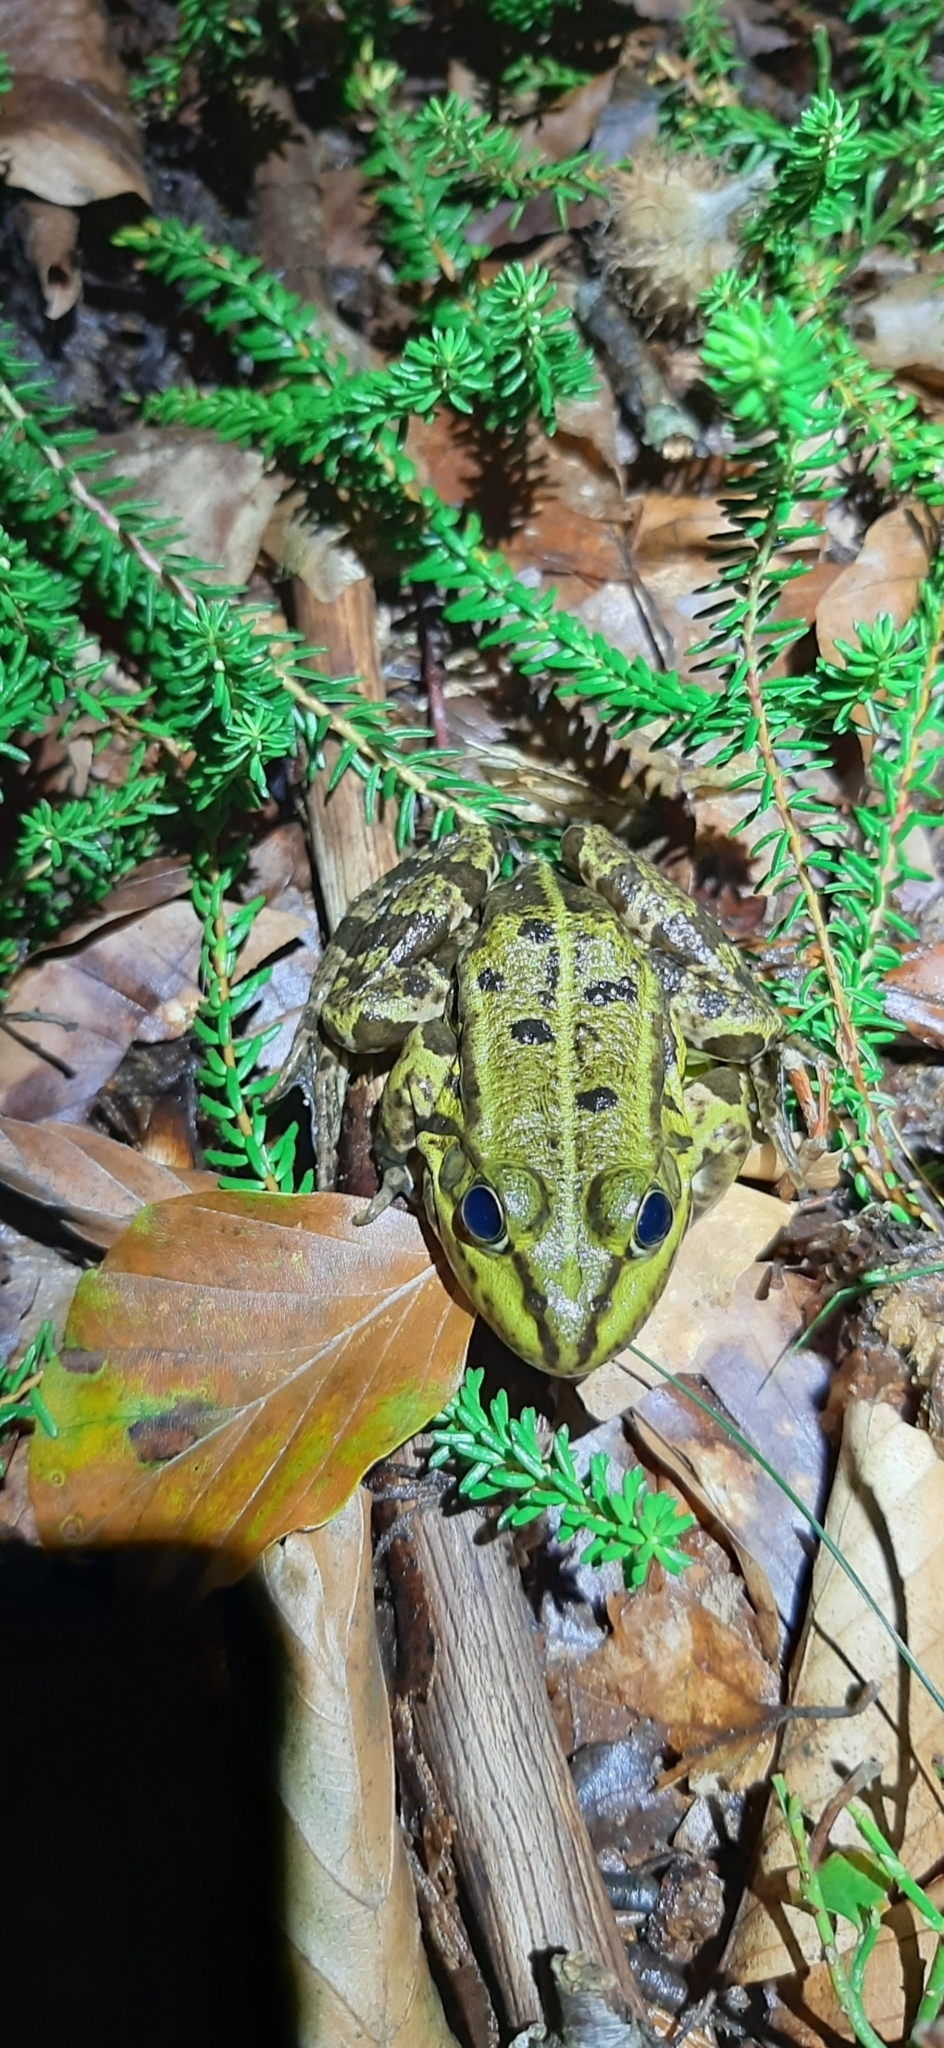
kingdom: Animalia
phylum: Chordata
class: Amphibia
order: Anura
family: Ranidae
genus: Pelophylax
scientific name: Pelophylax
